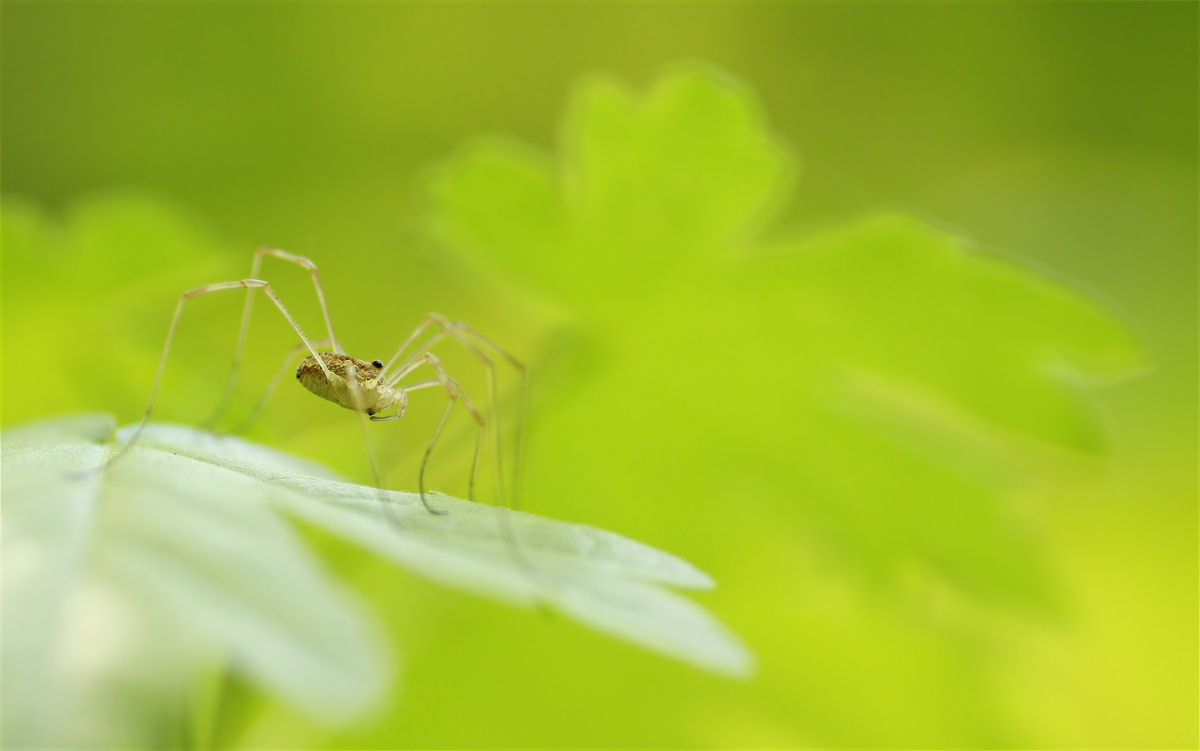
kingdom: Animalia
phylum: Arthropoda
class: Arachnida
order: Opiliones
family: Phalangiidae
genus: Rilaena
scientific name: Rilaena triangularis
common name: Spring harvestman
